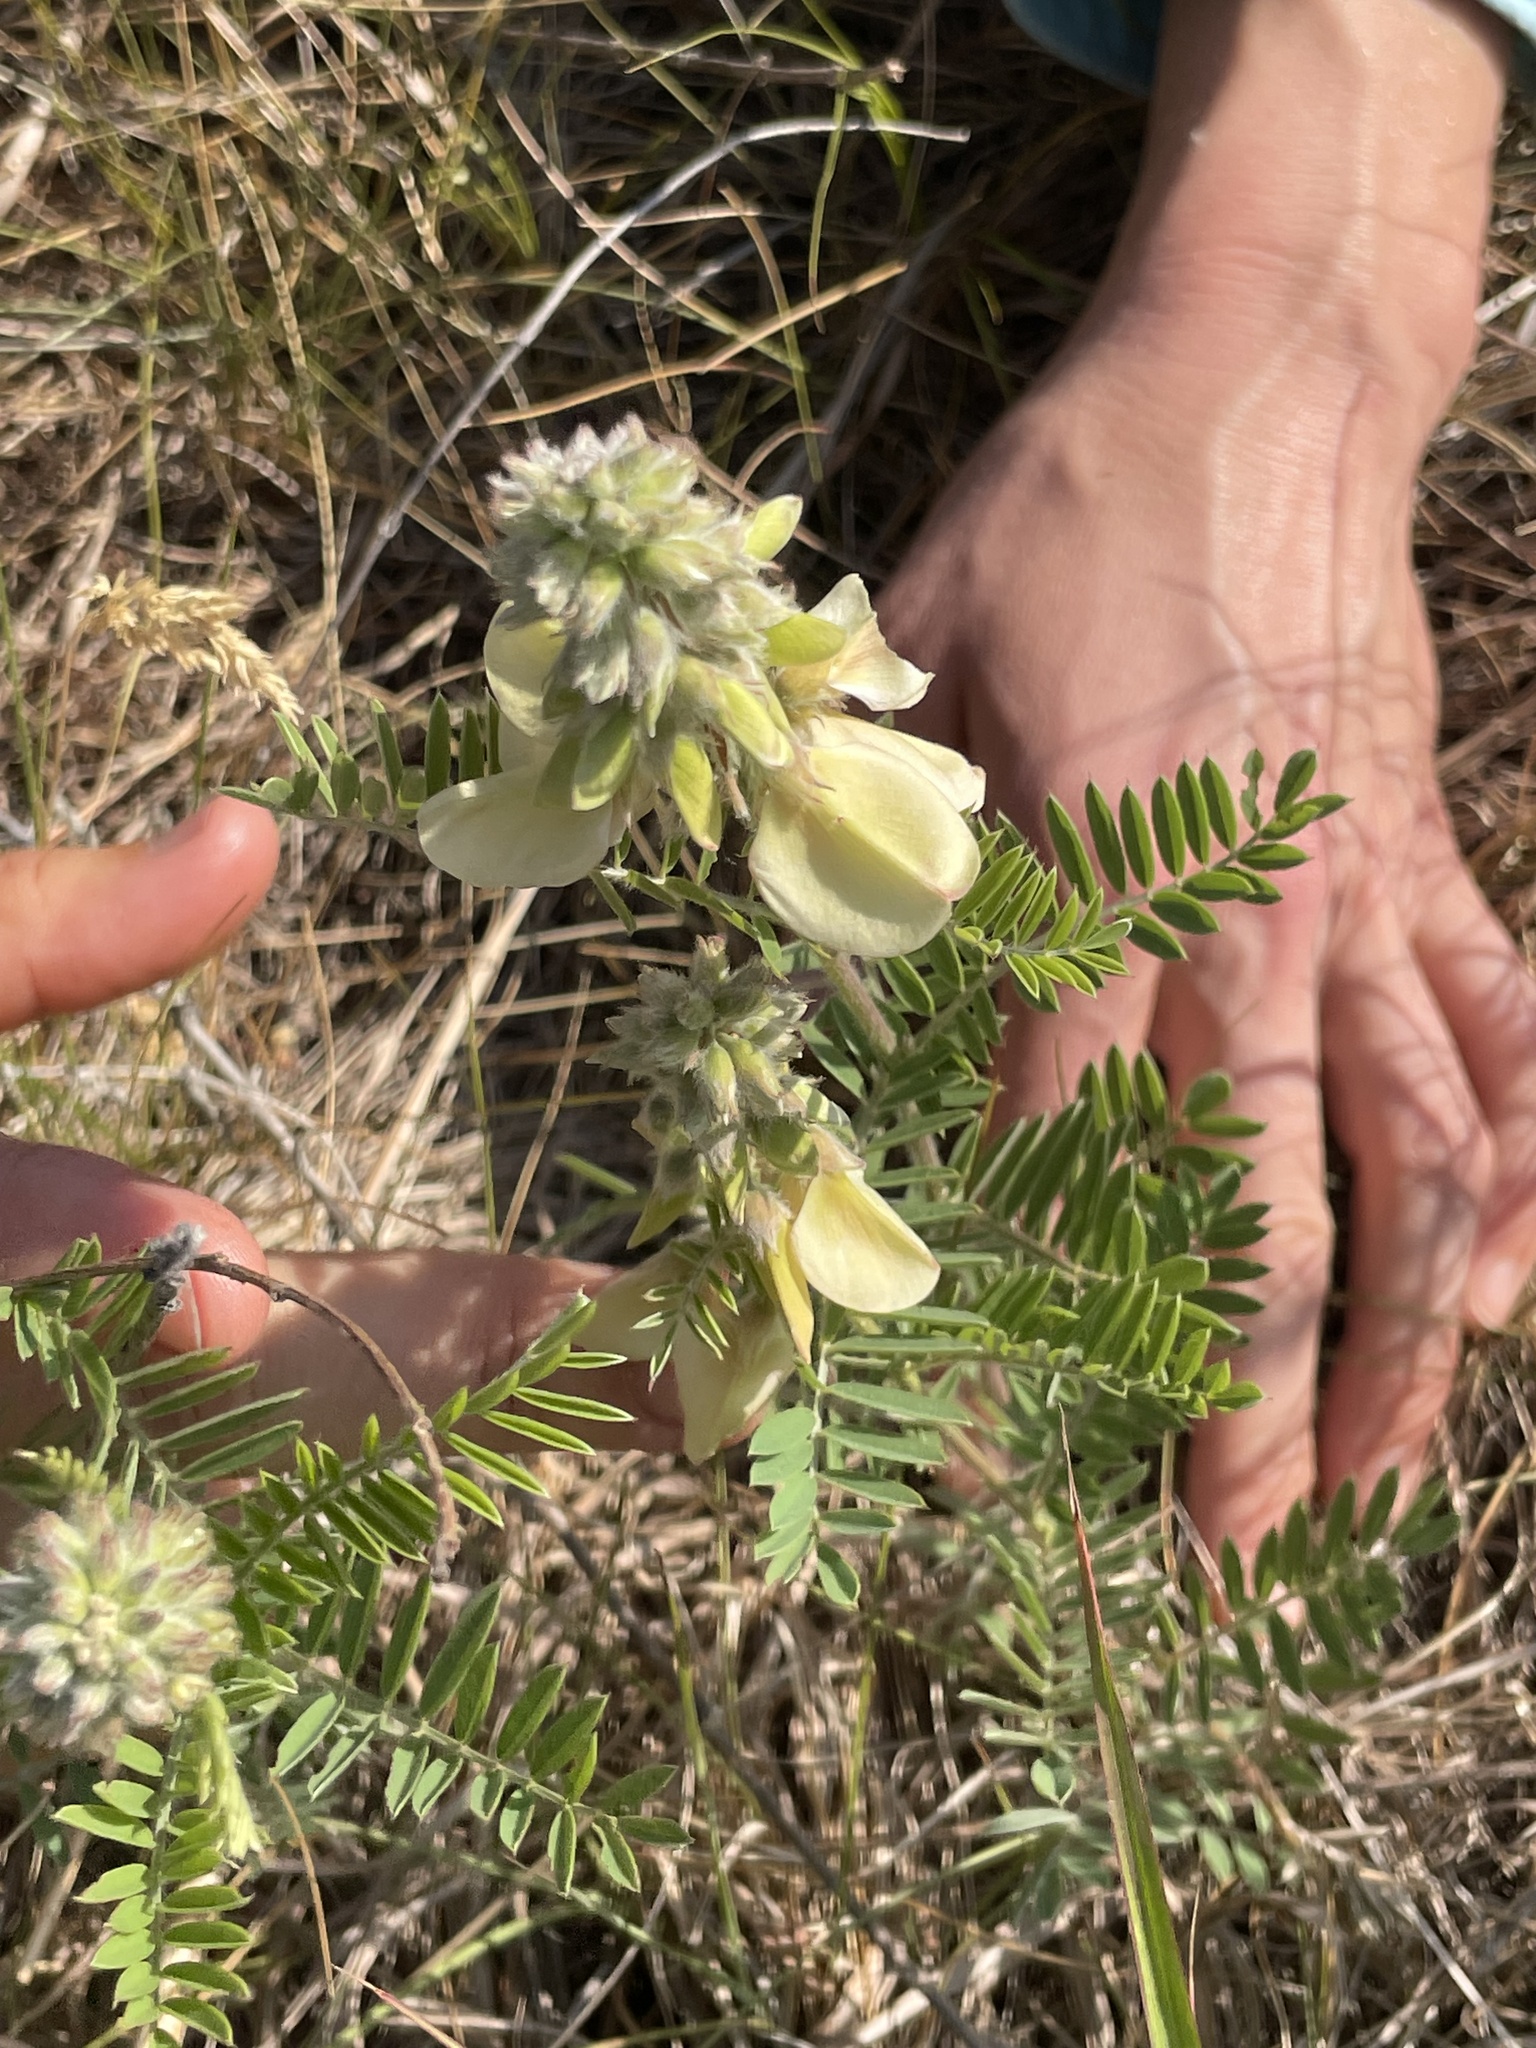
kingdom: Plantae
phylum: Tracheophyta
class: Magnoliopsida
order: Fabales
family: Fabaceae
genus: Tephrosia
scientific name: Tephrosia virginiana
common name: Rabbit-pea
